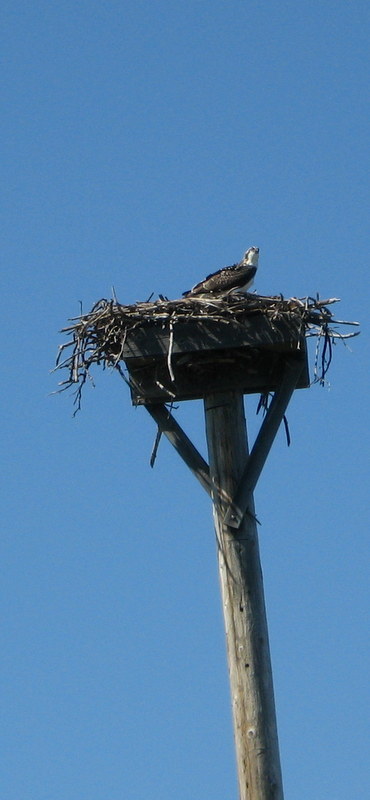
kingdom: Animalia
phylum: Chordata
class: Aves
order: Accipitriformes
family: Pandionidae
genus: Pandion
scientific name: Pandion haliaetus
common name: Osprey
